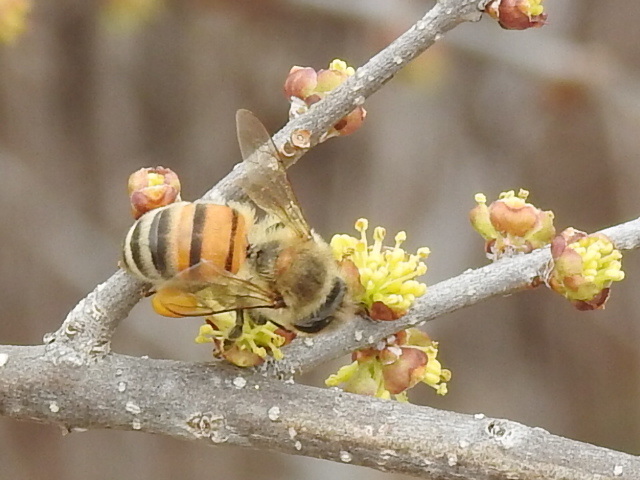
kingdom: Animalia
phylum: Arthropoda
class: Insecta
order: Hymenoptera
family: Apidae
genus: Apis
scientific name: Apis mellifera
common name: Honey bee
